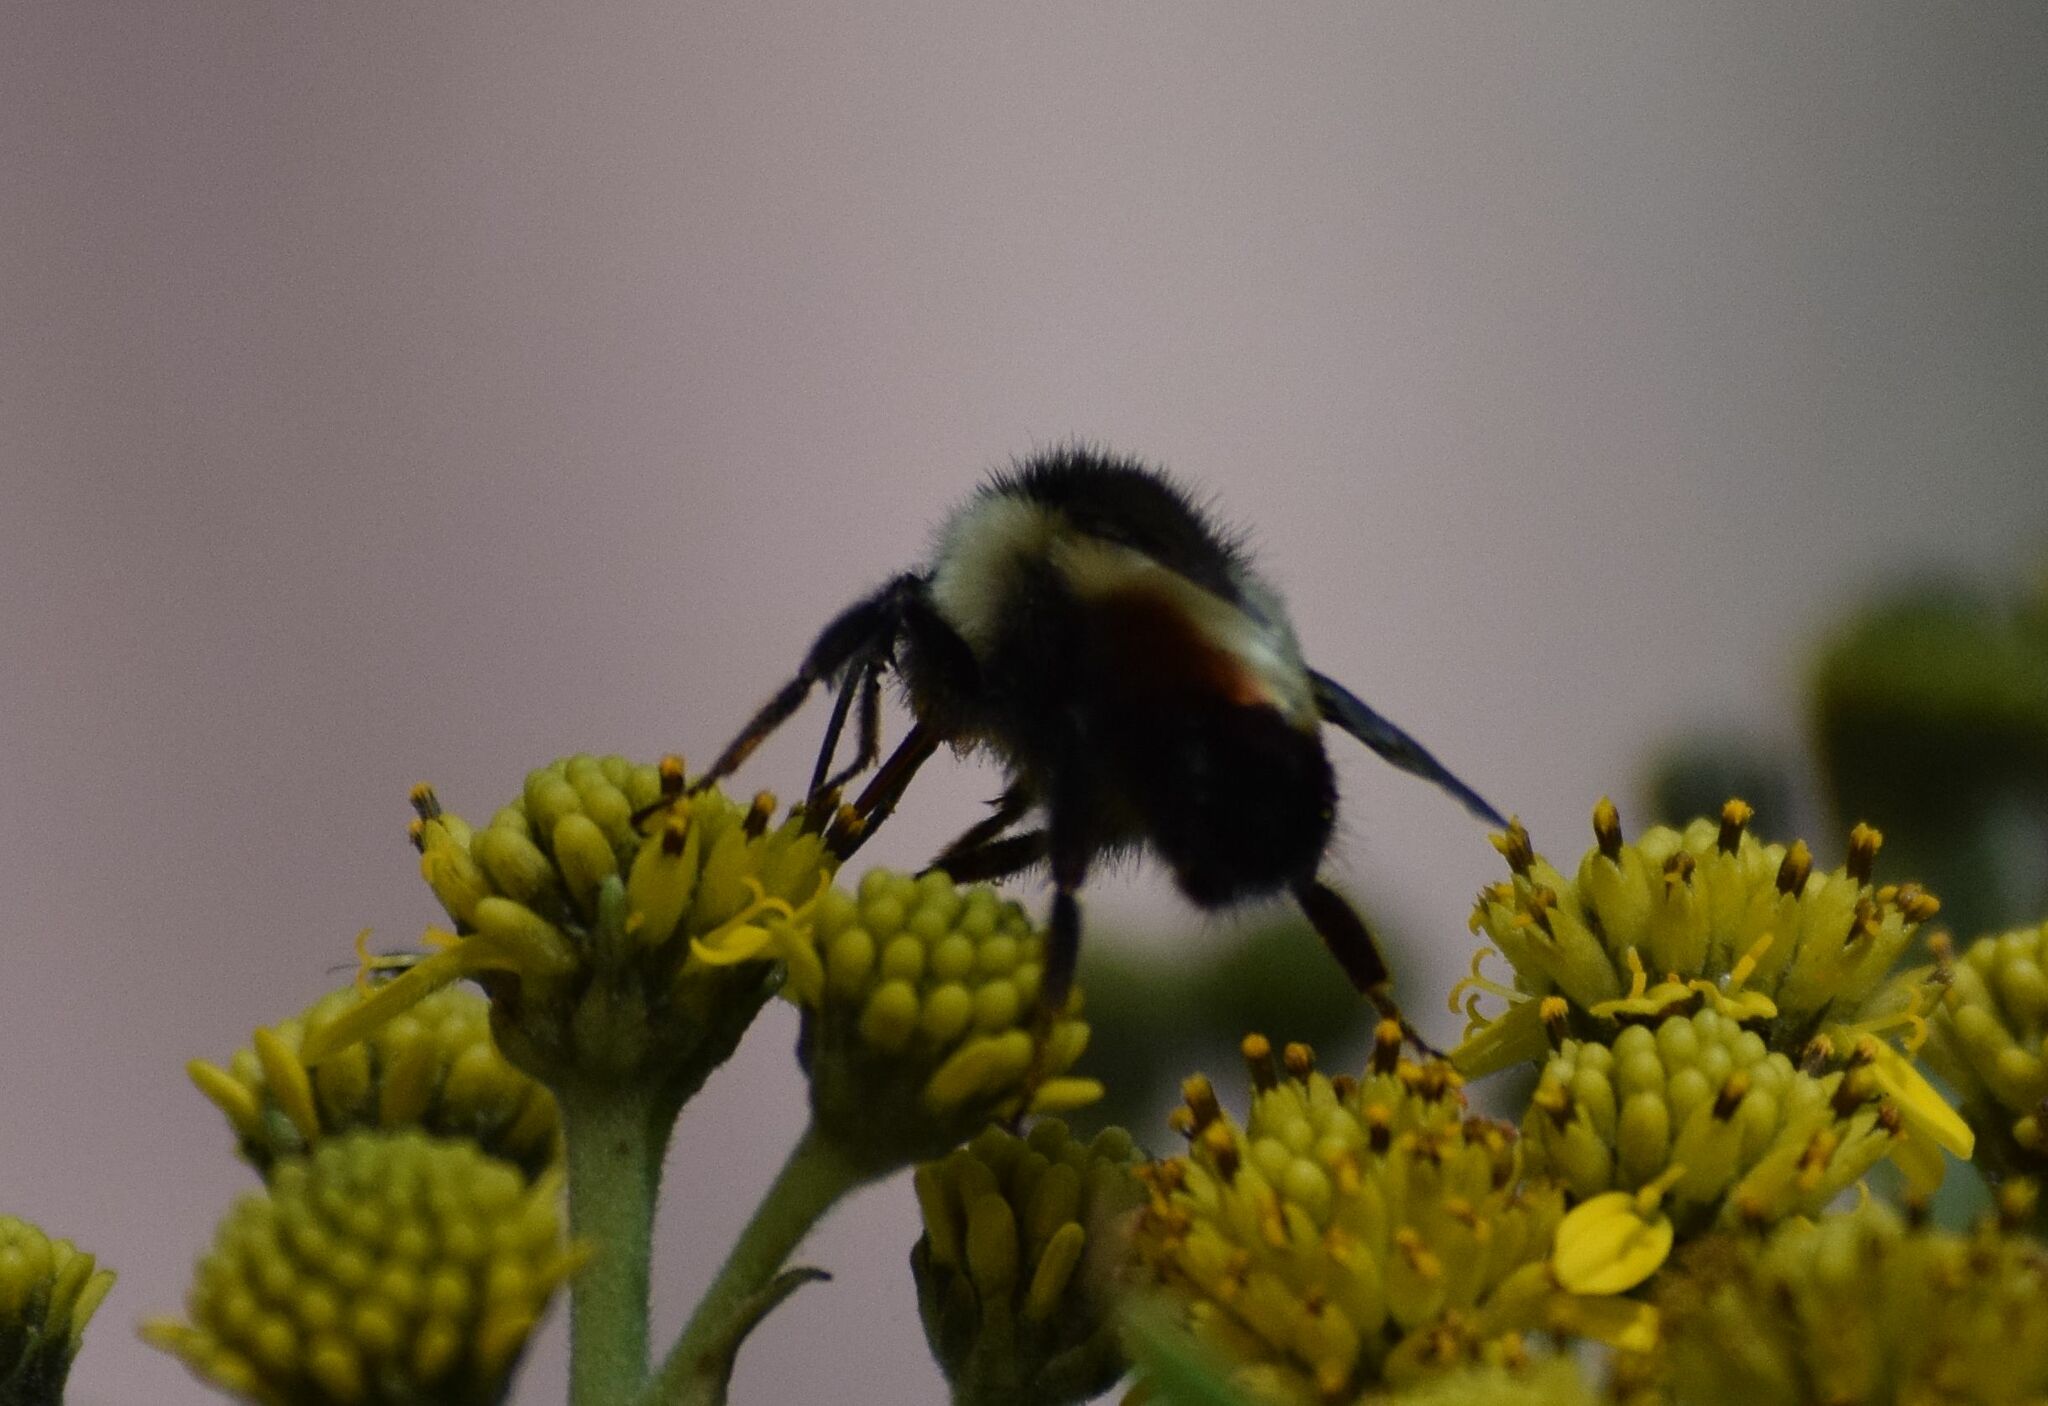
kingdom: Animalia
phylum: Arthropoda
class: Insecta
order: Hymenoptera
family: Apidae
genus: Bombus
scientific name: Bombus ephippiatus
